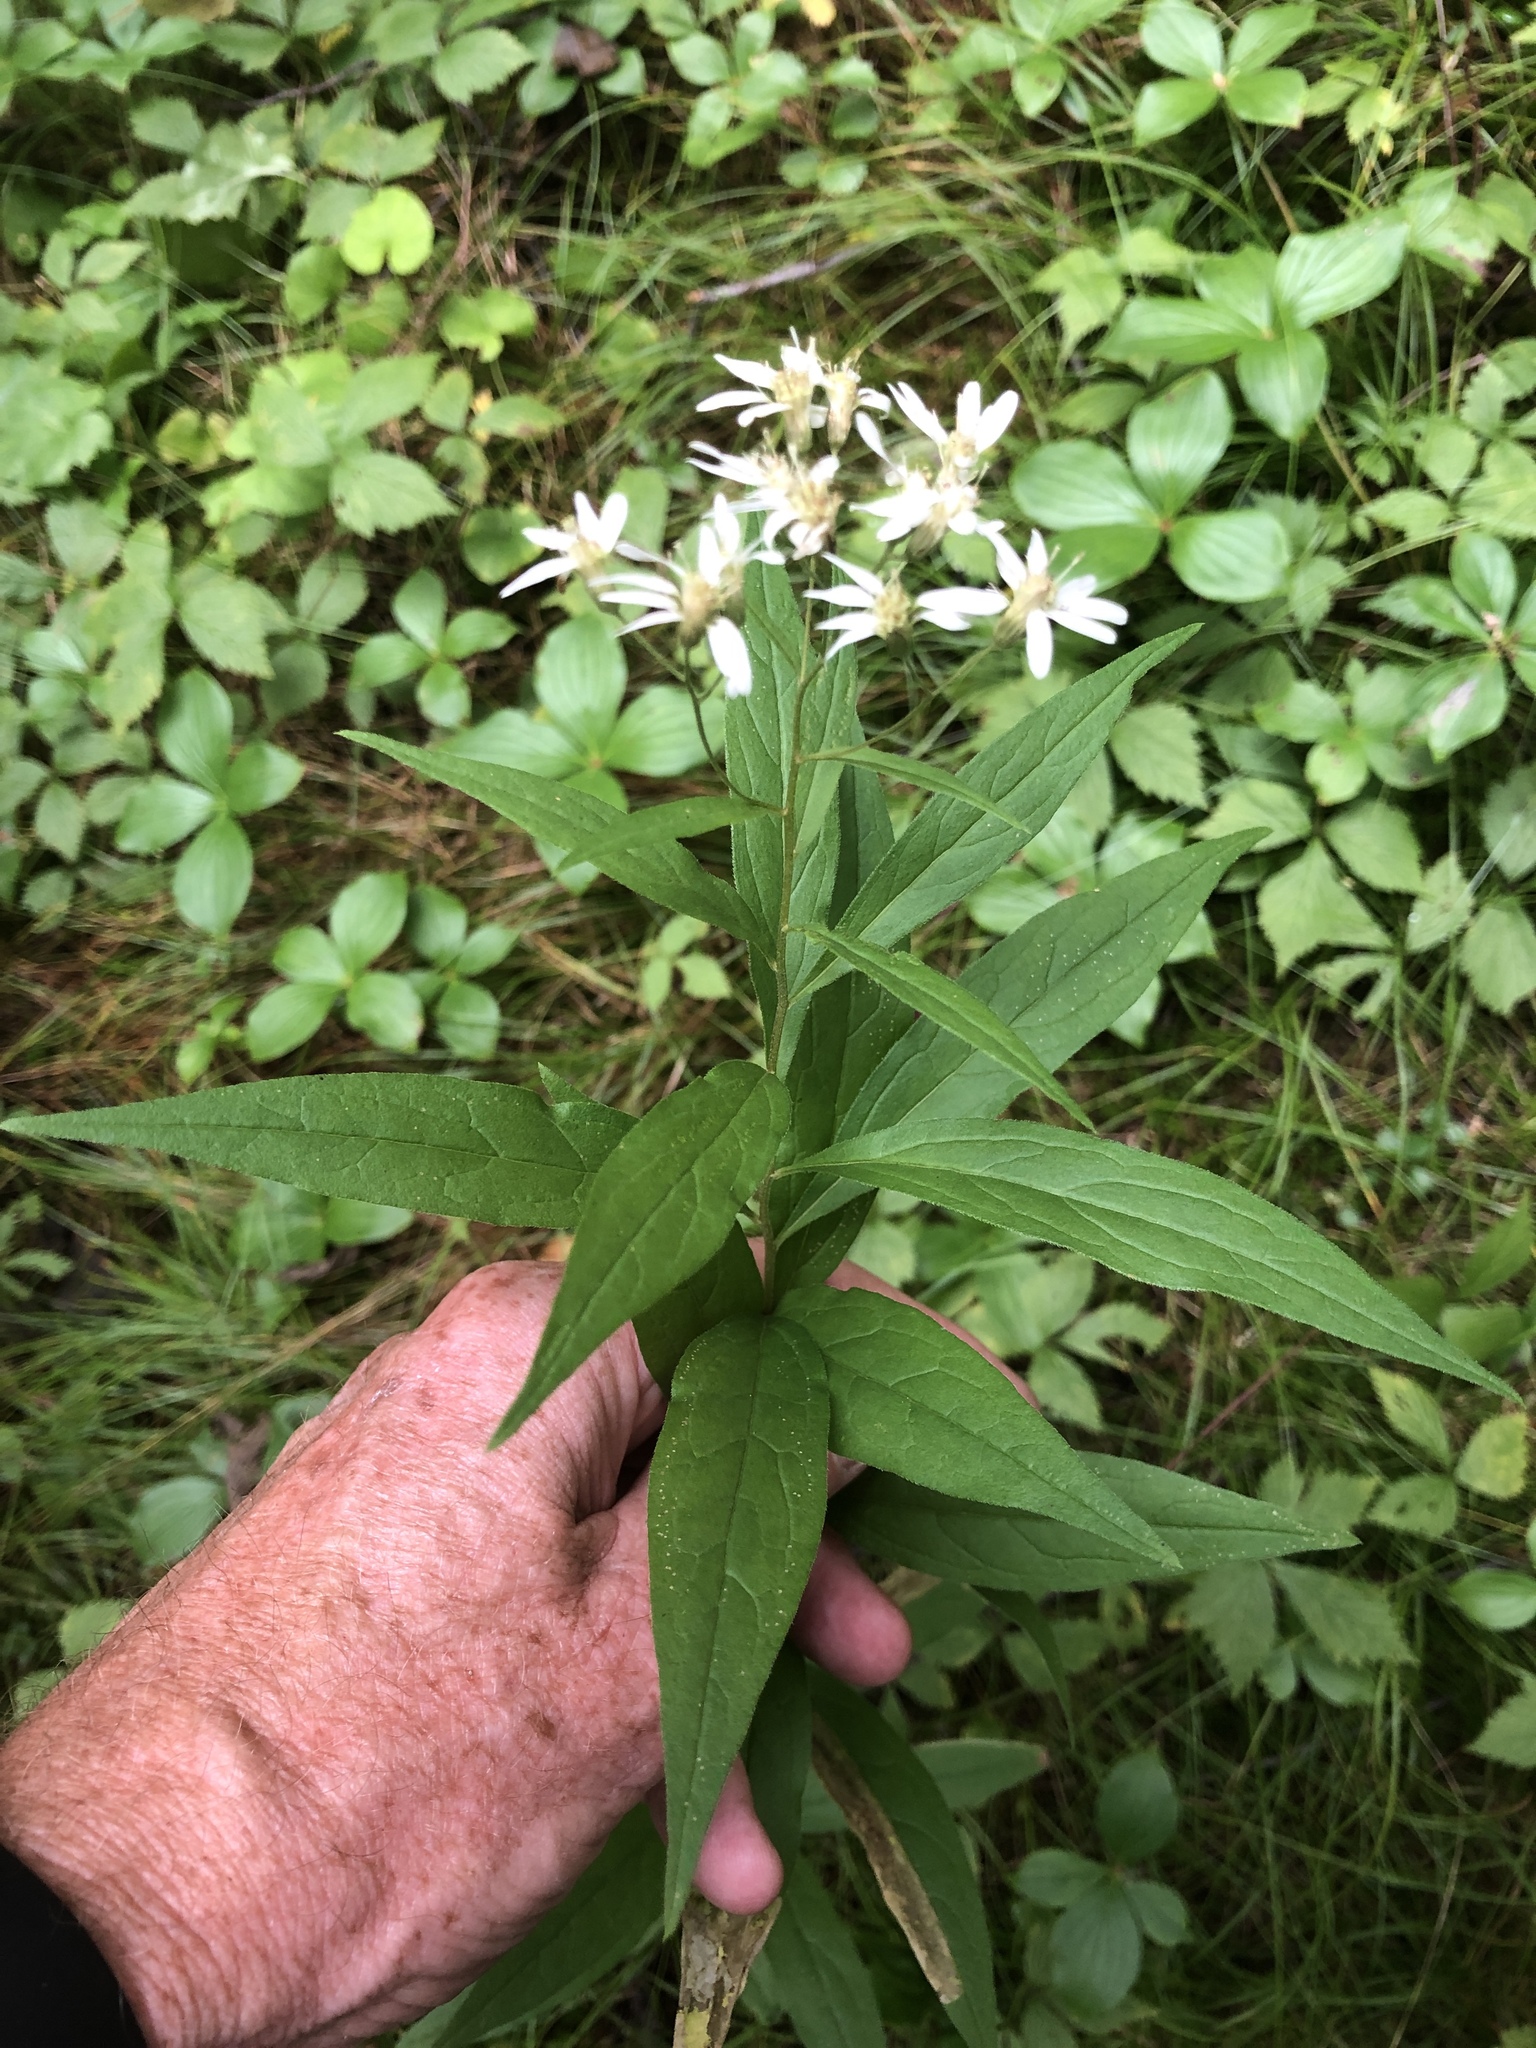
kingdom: Plantae
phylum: Tracheophyta
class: Magnoliopsida
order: Asterales
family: Asteraceae
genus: Doellingeria
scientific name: Doellingeria umbellata
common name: Flat-top white aster
